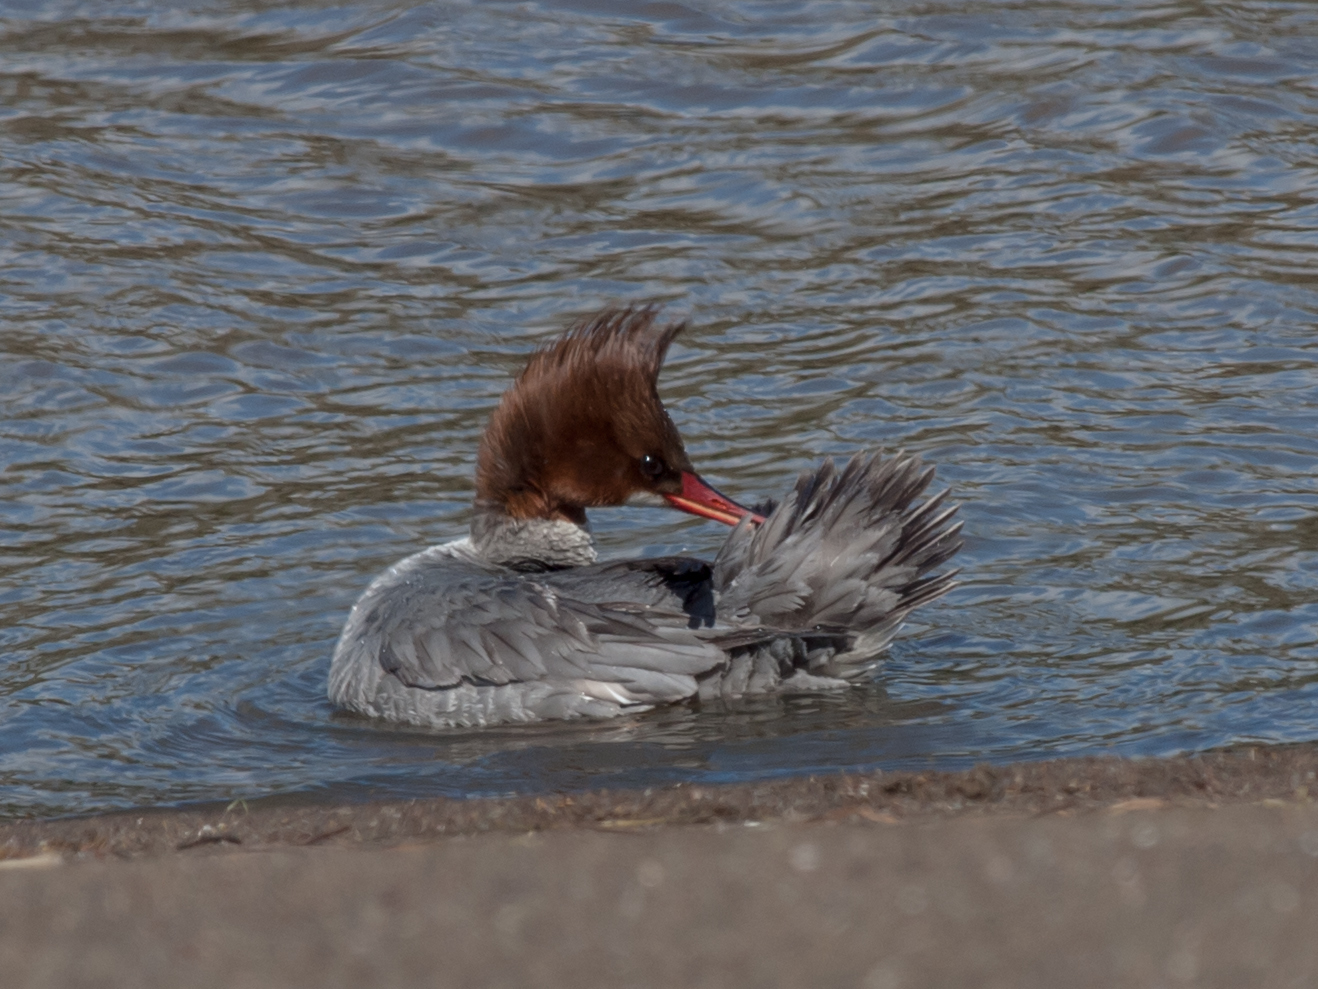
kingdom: Animalia
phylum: Chordata
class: Aves
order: Anseriformes
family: Anatidae
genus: Mergus
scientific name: Mergus merganser
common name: Common merganser
